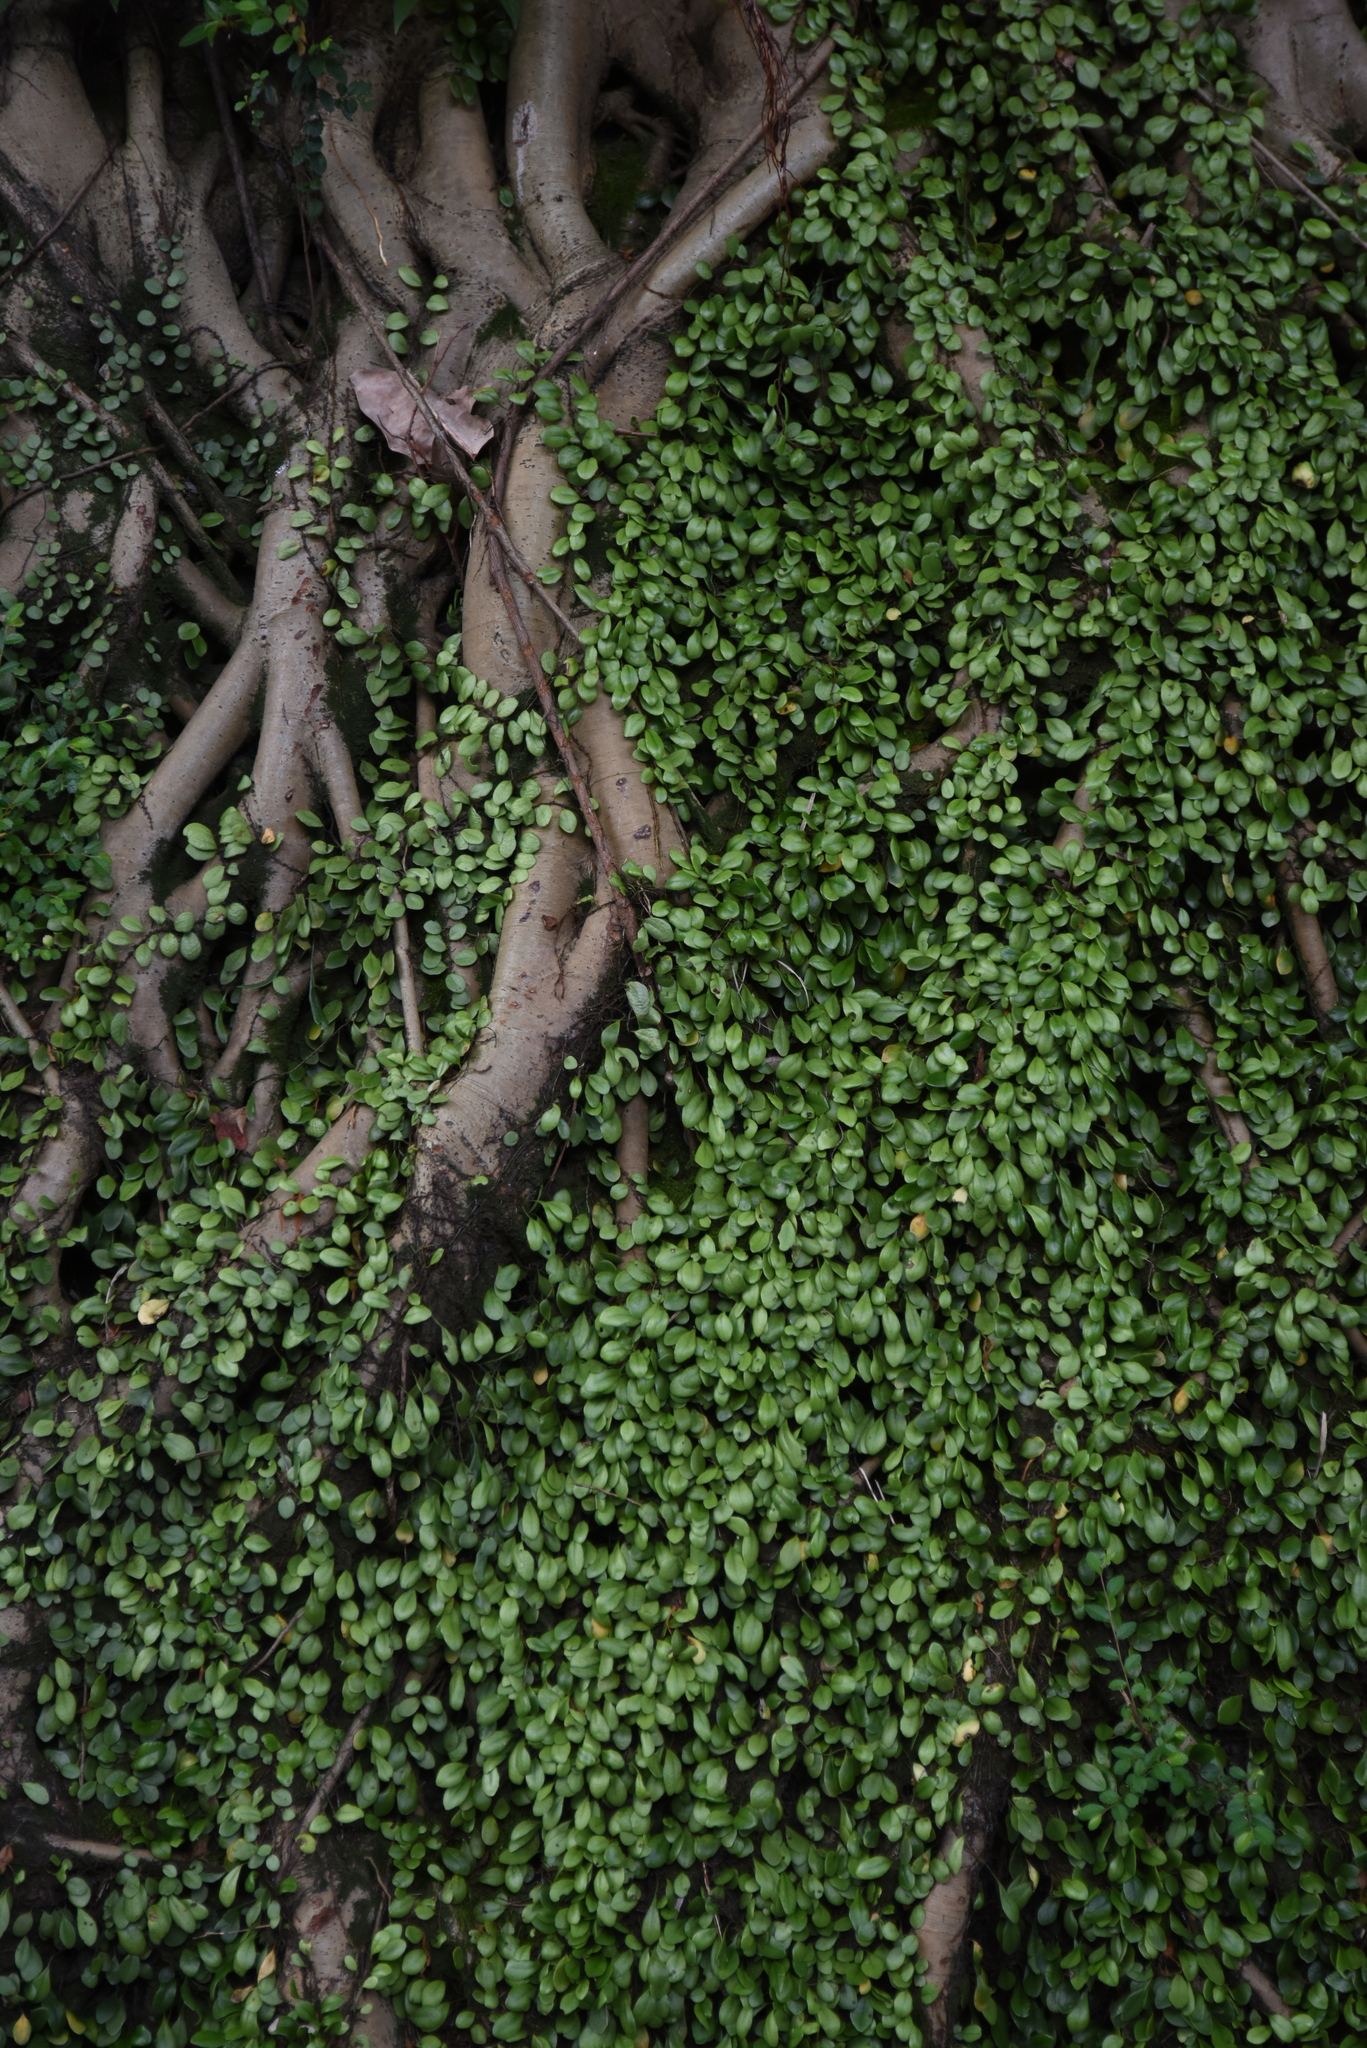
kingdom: Plantae
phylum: Tracheophyta
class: Polypodiopsida
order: Polypodiales
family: Polypodiaceae
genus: Lepisorus
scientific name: Lepisorus microphyllus
